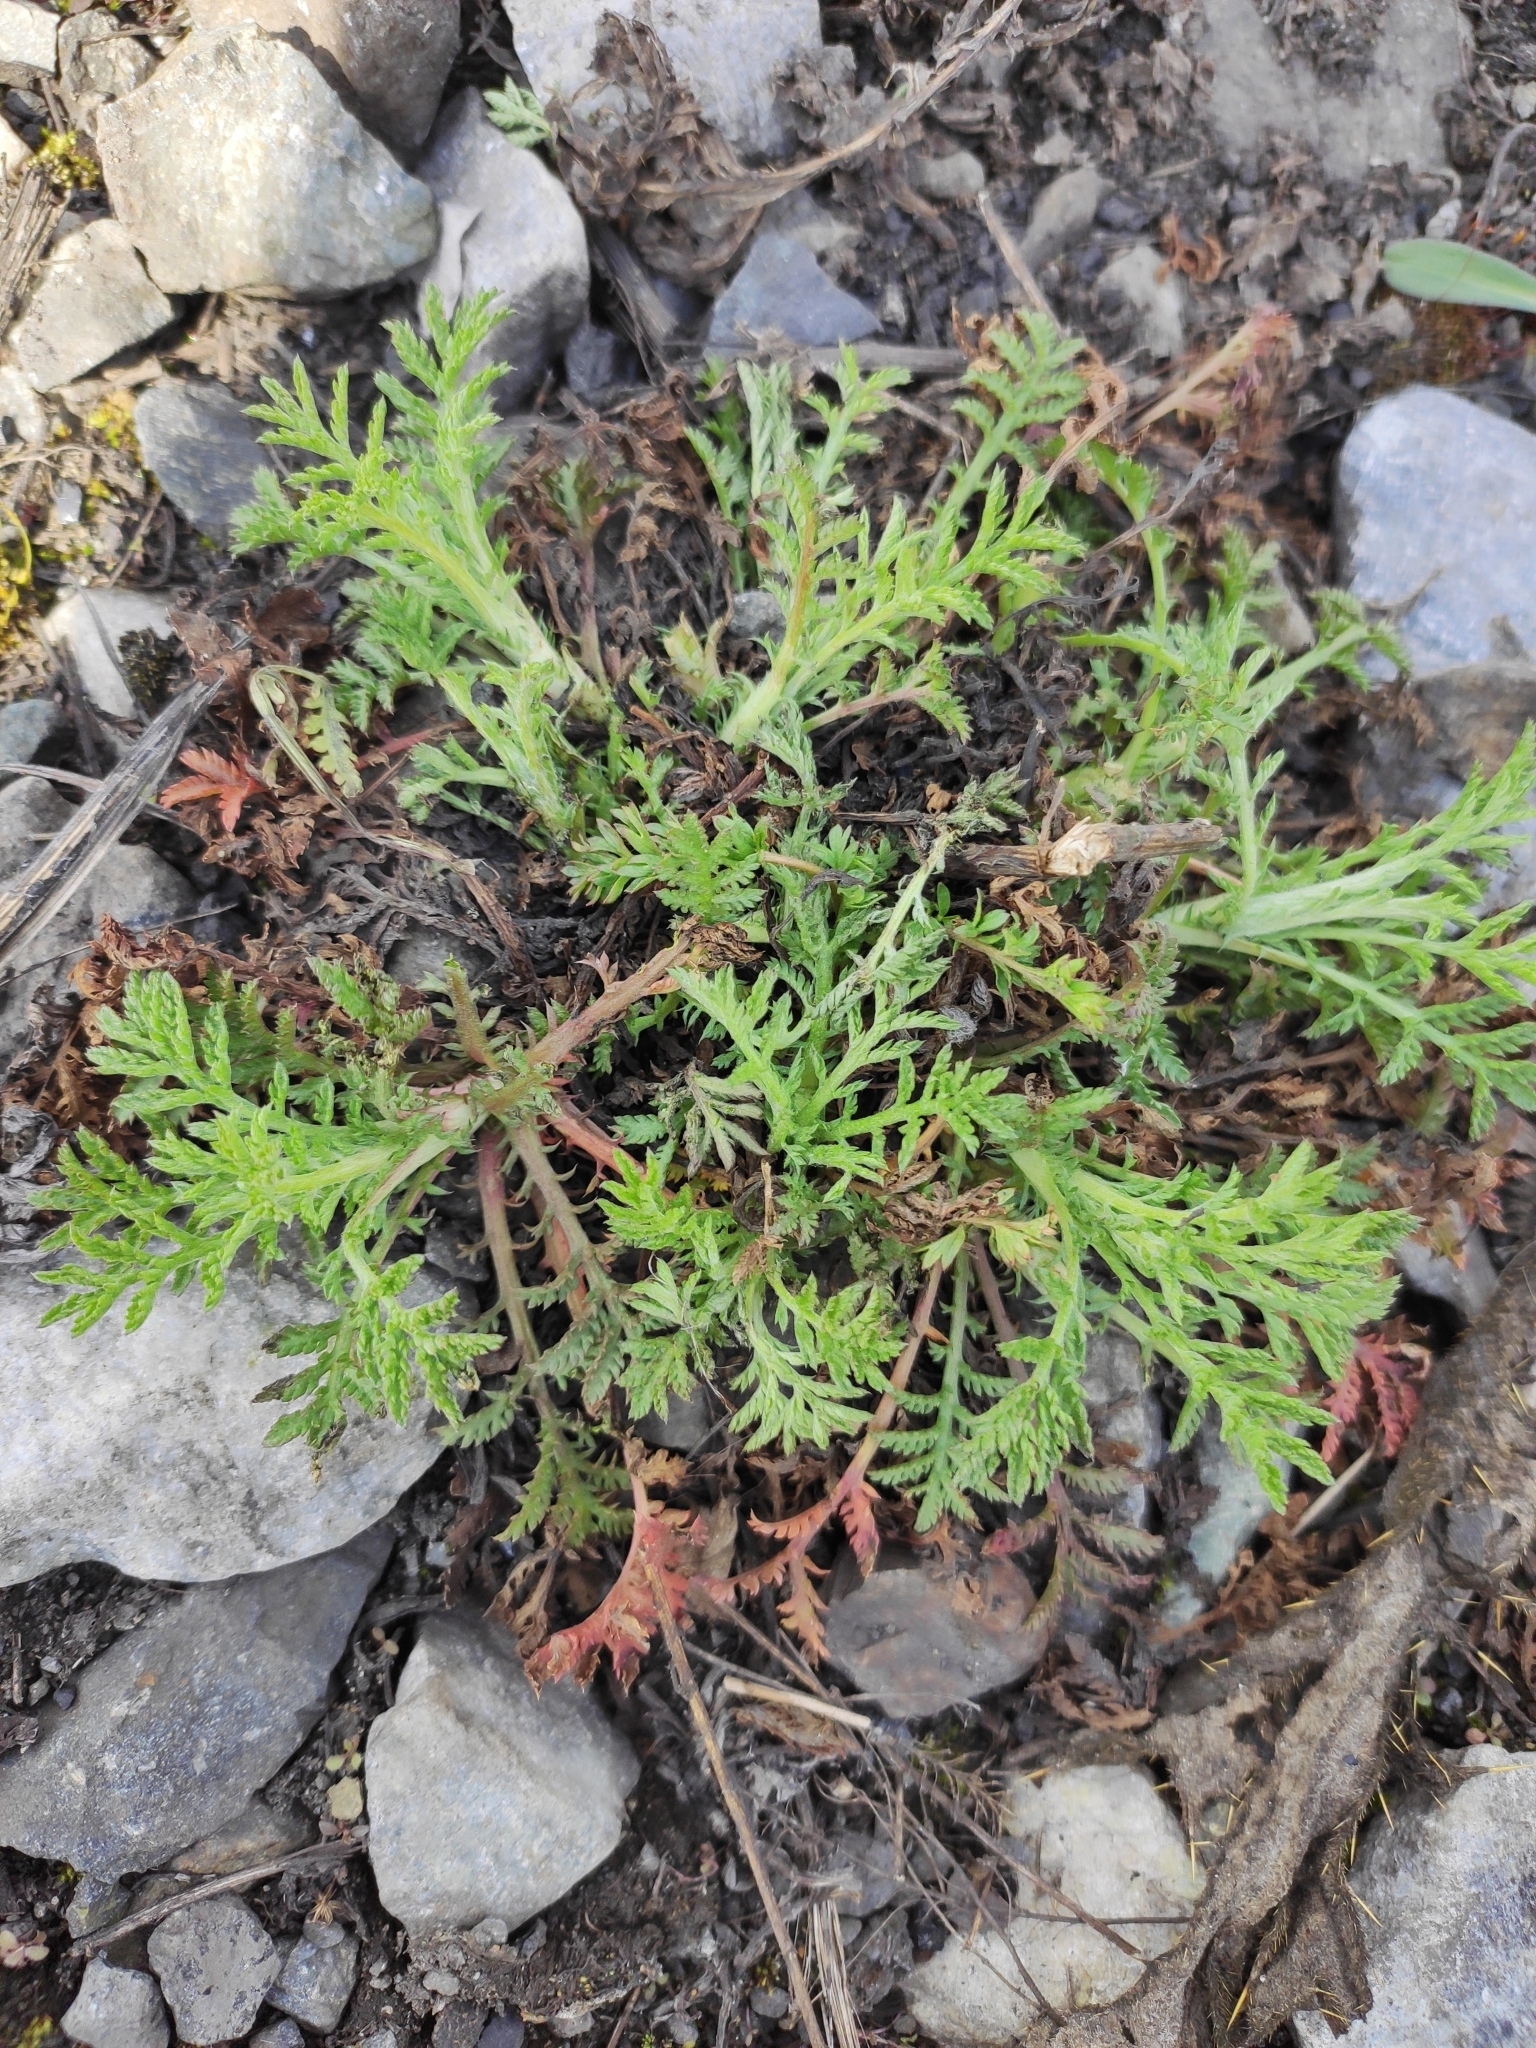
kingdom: Plantae
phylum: Tracheophyta
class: Magnoliopsida
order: Asterales
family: Asteraceae
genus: Cota
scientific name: Cota tinctoria
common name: Golden chamomile
